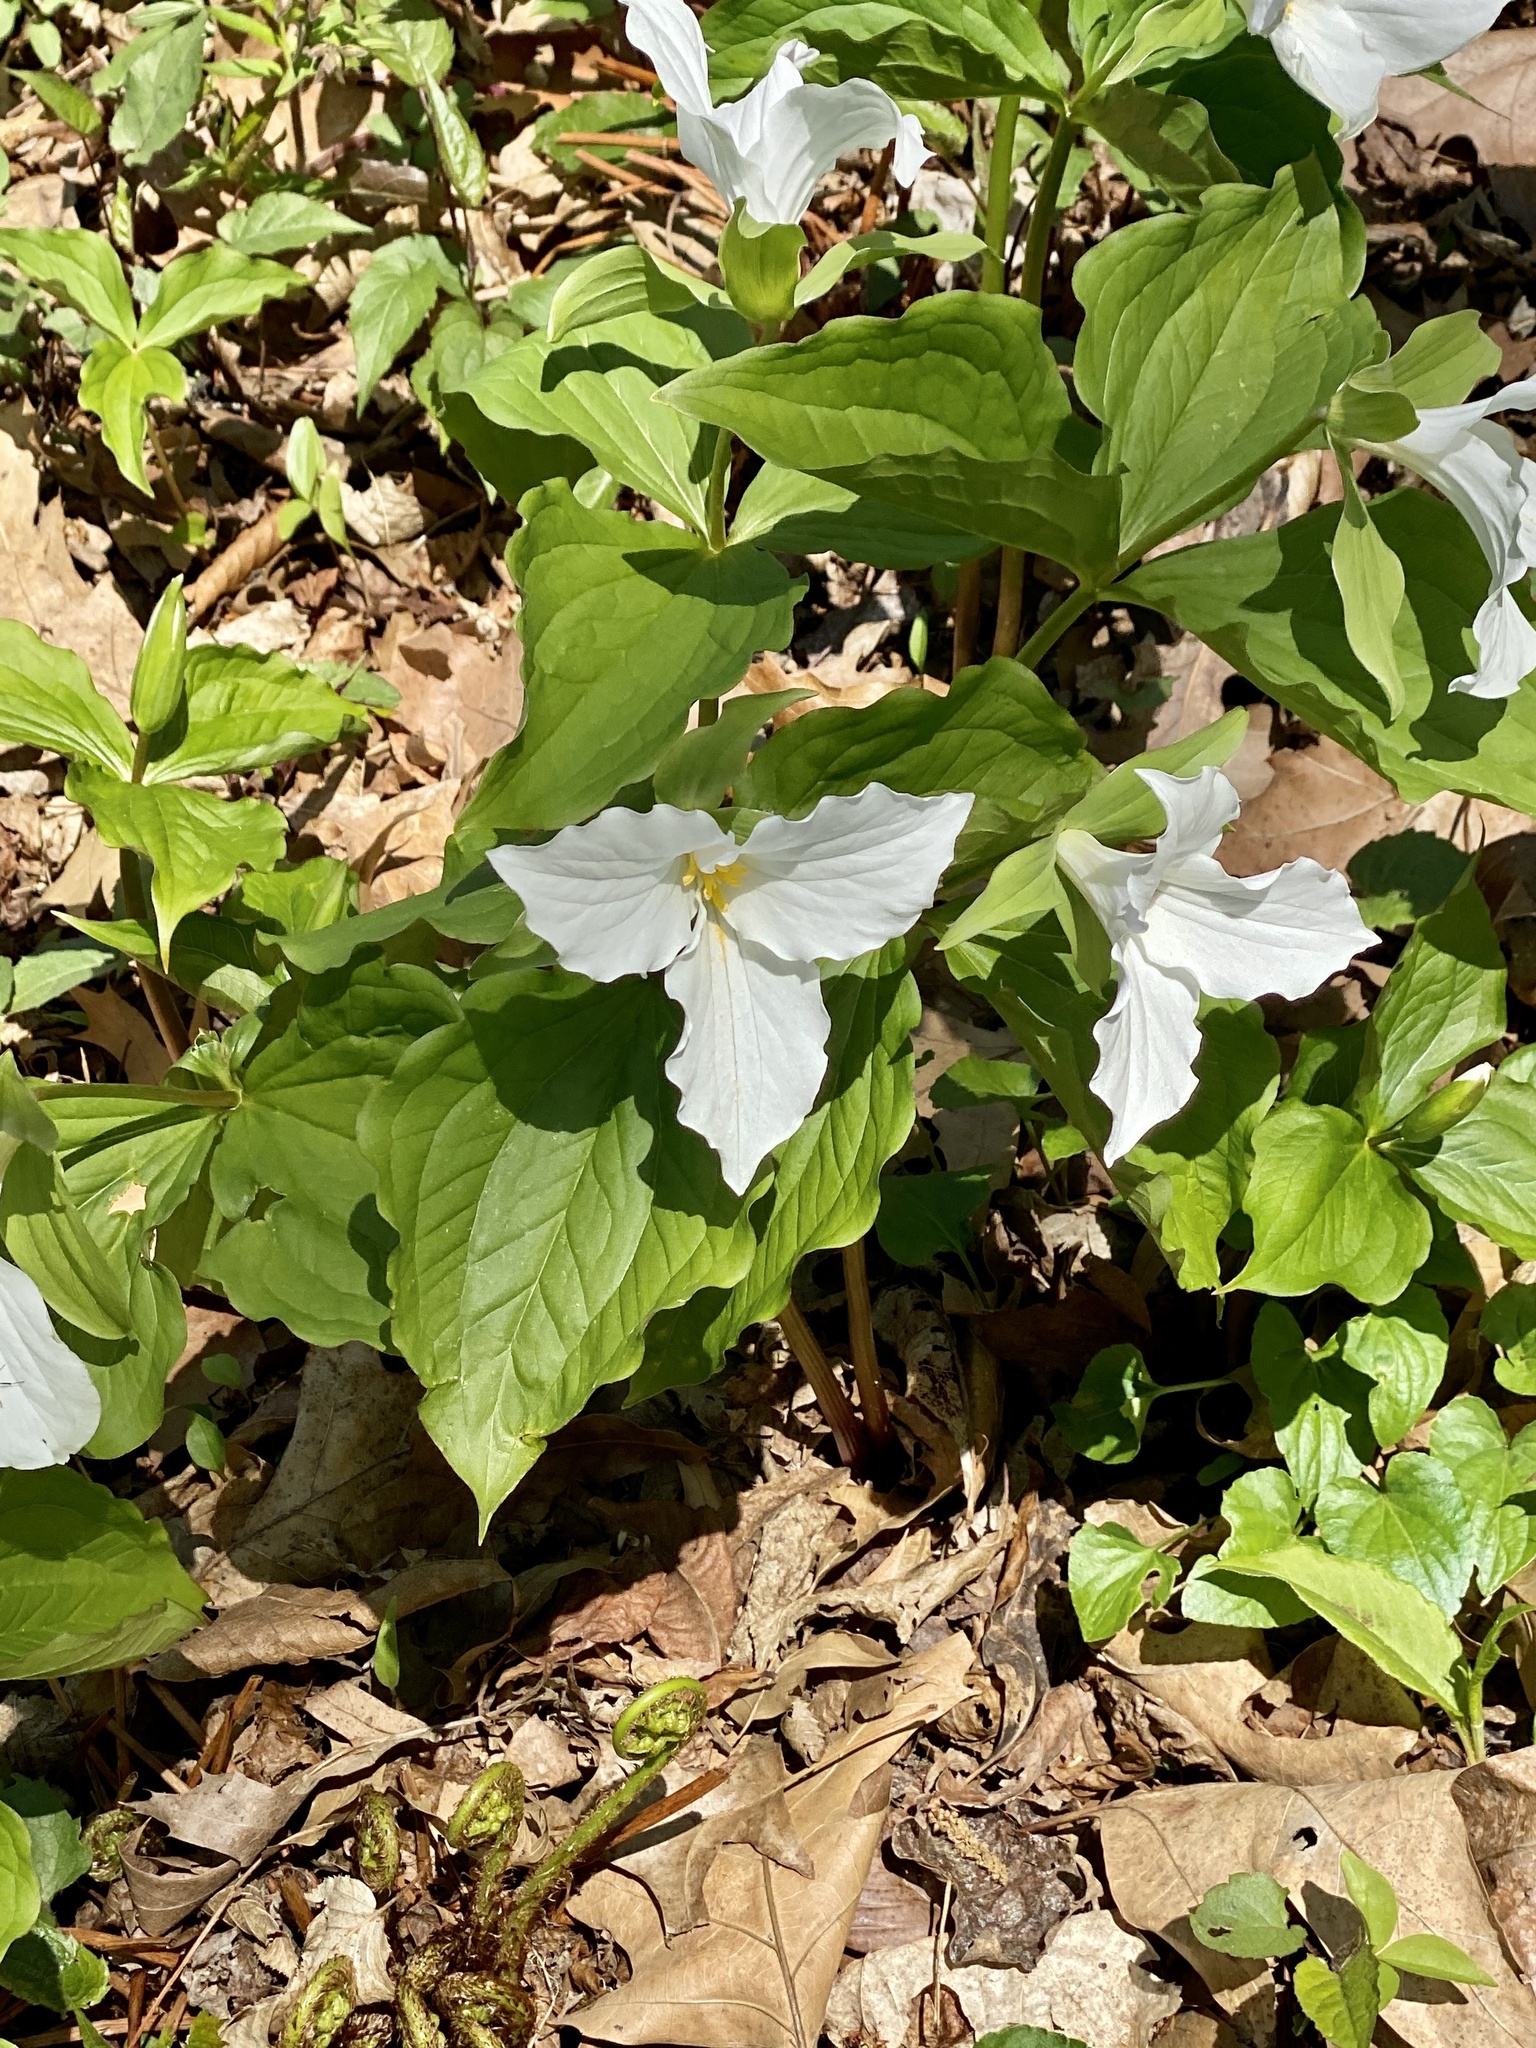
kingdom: Plantae
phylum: Tracheophyta
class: Liliopsida
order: Liliales
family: Melanthiaceae
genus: Trillium
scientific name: Trillium grandiflorum
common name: Great white trillium
